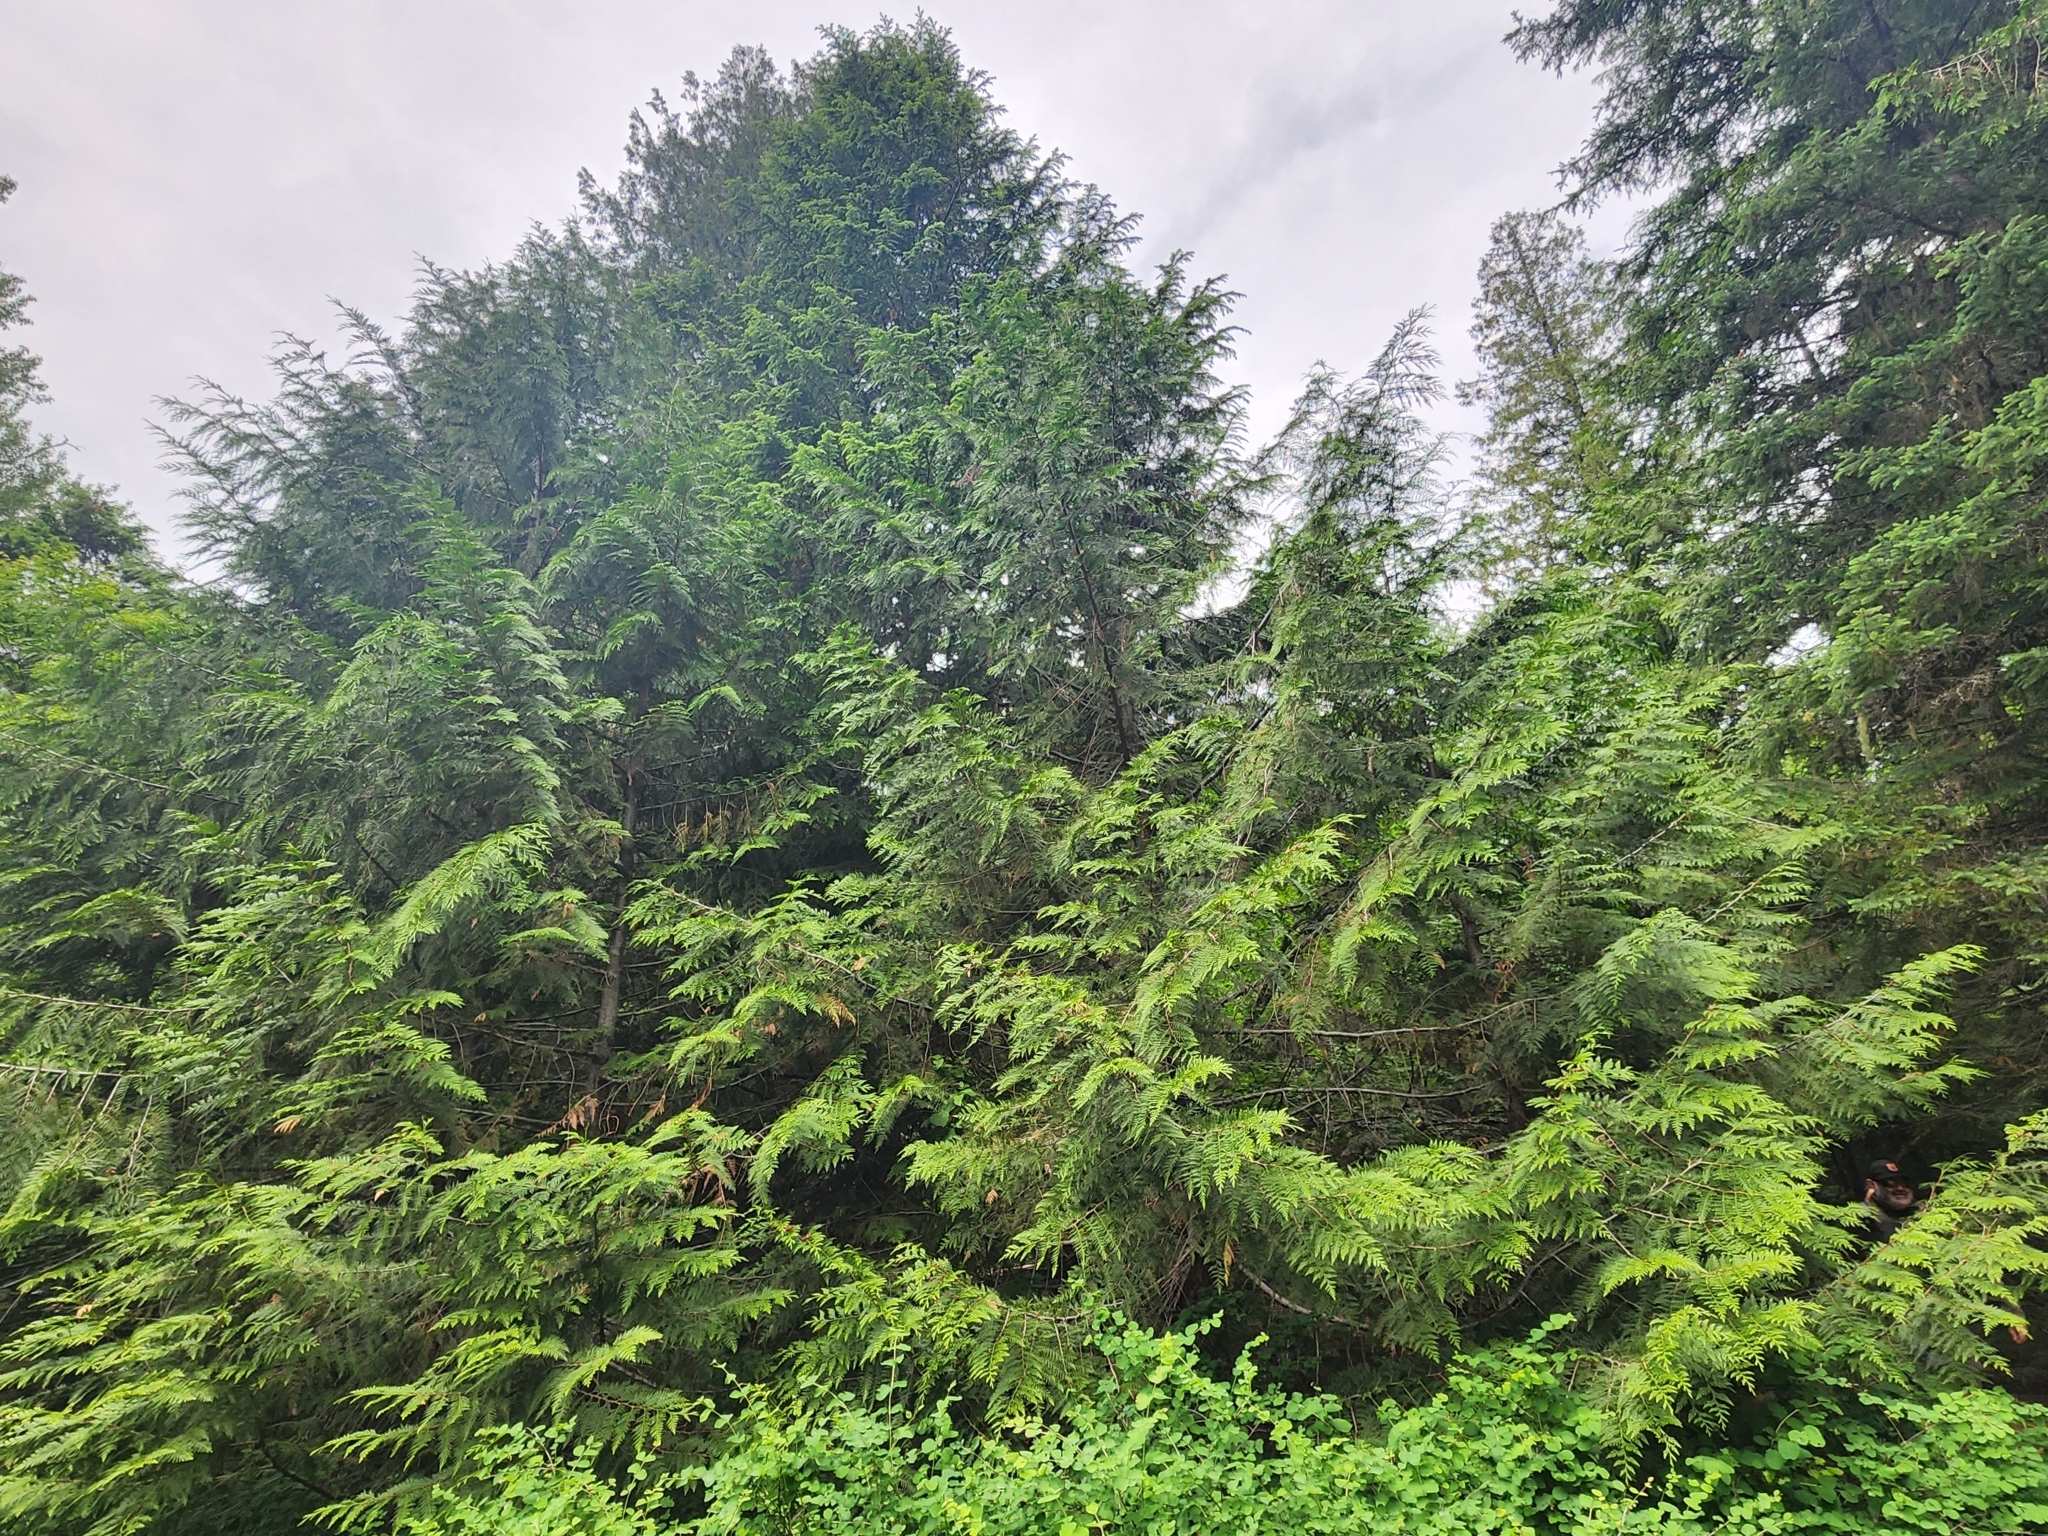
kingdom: Plantae
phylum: Tracheophyta
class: Pinopsida
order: Pinales
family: Cupressaceae
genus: Thuja
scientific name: Thuja plicata
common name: Western red-cedar
